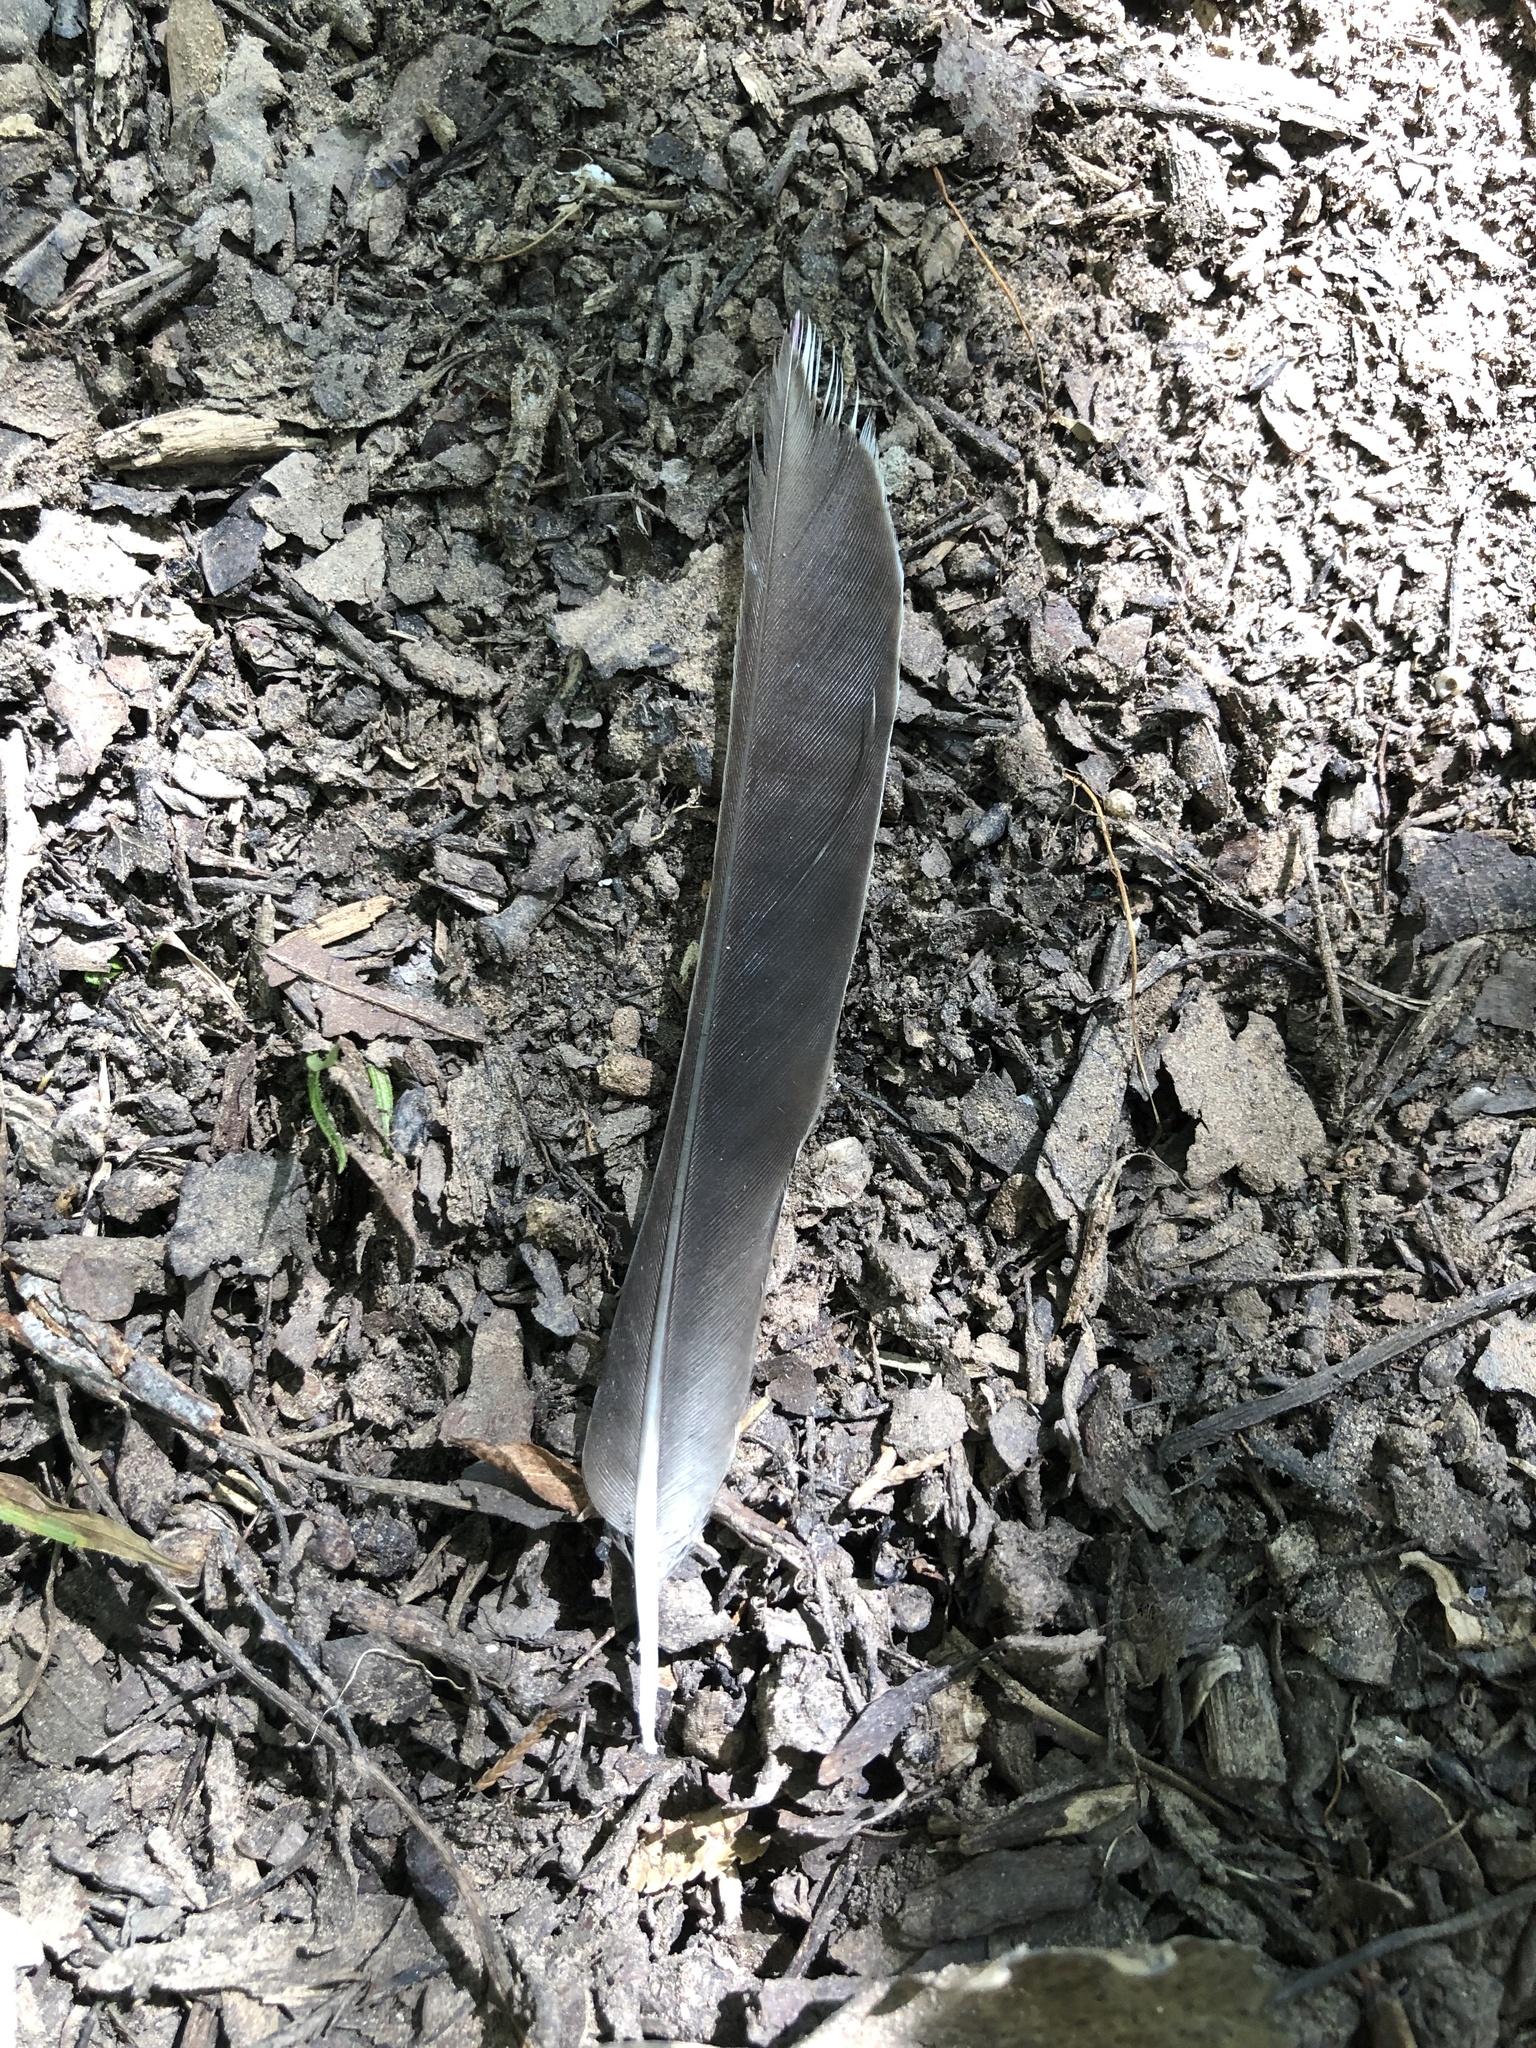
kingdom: Animalia
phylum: Chordata
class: Aves
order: Passeriformes
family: Turdidae
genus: Turdus
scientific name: Turdus migratorius
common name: American robin
